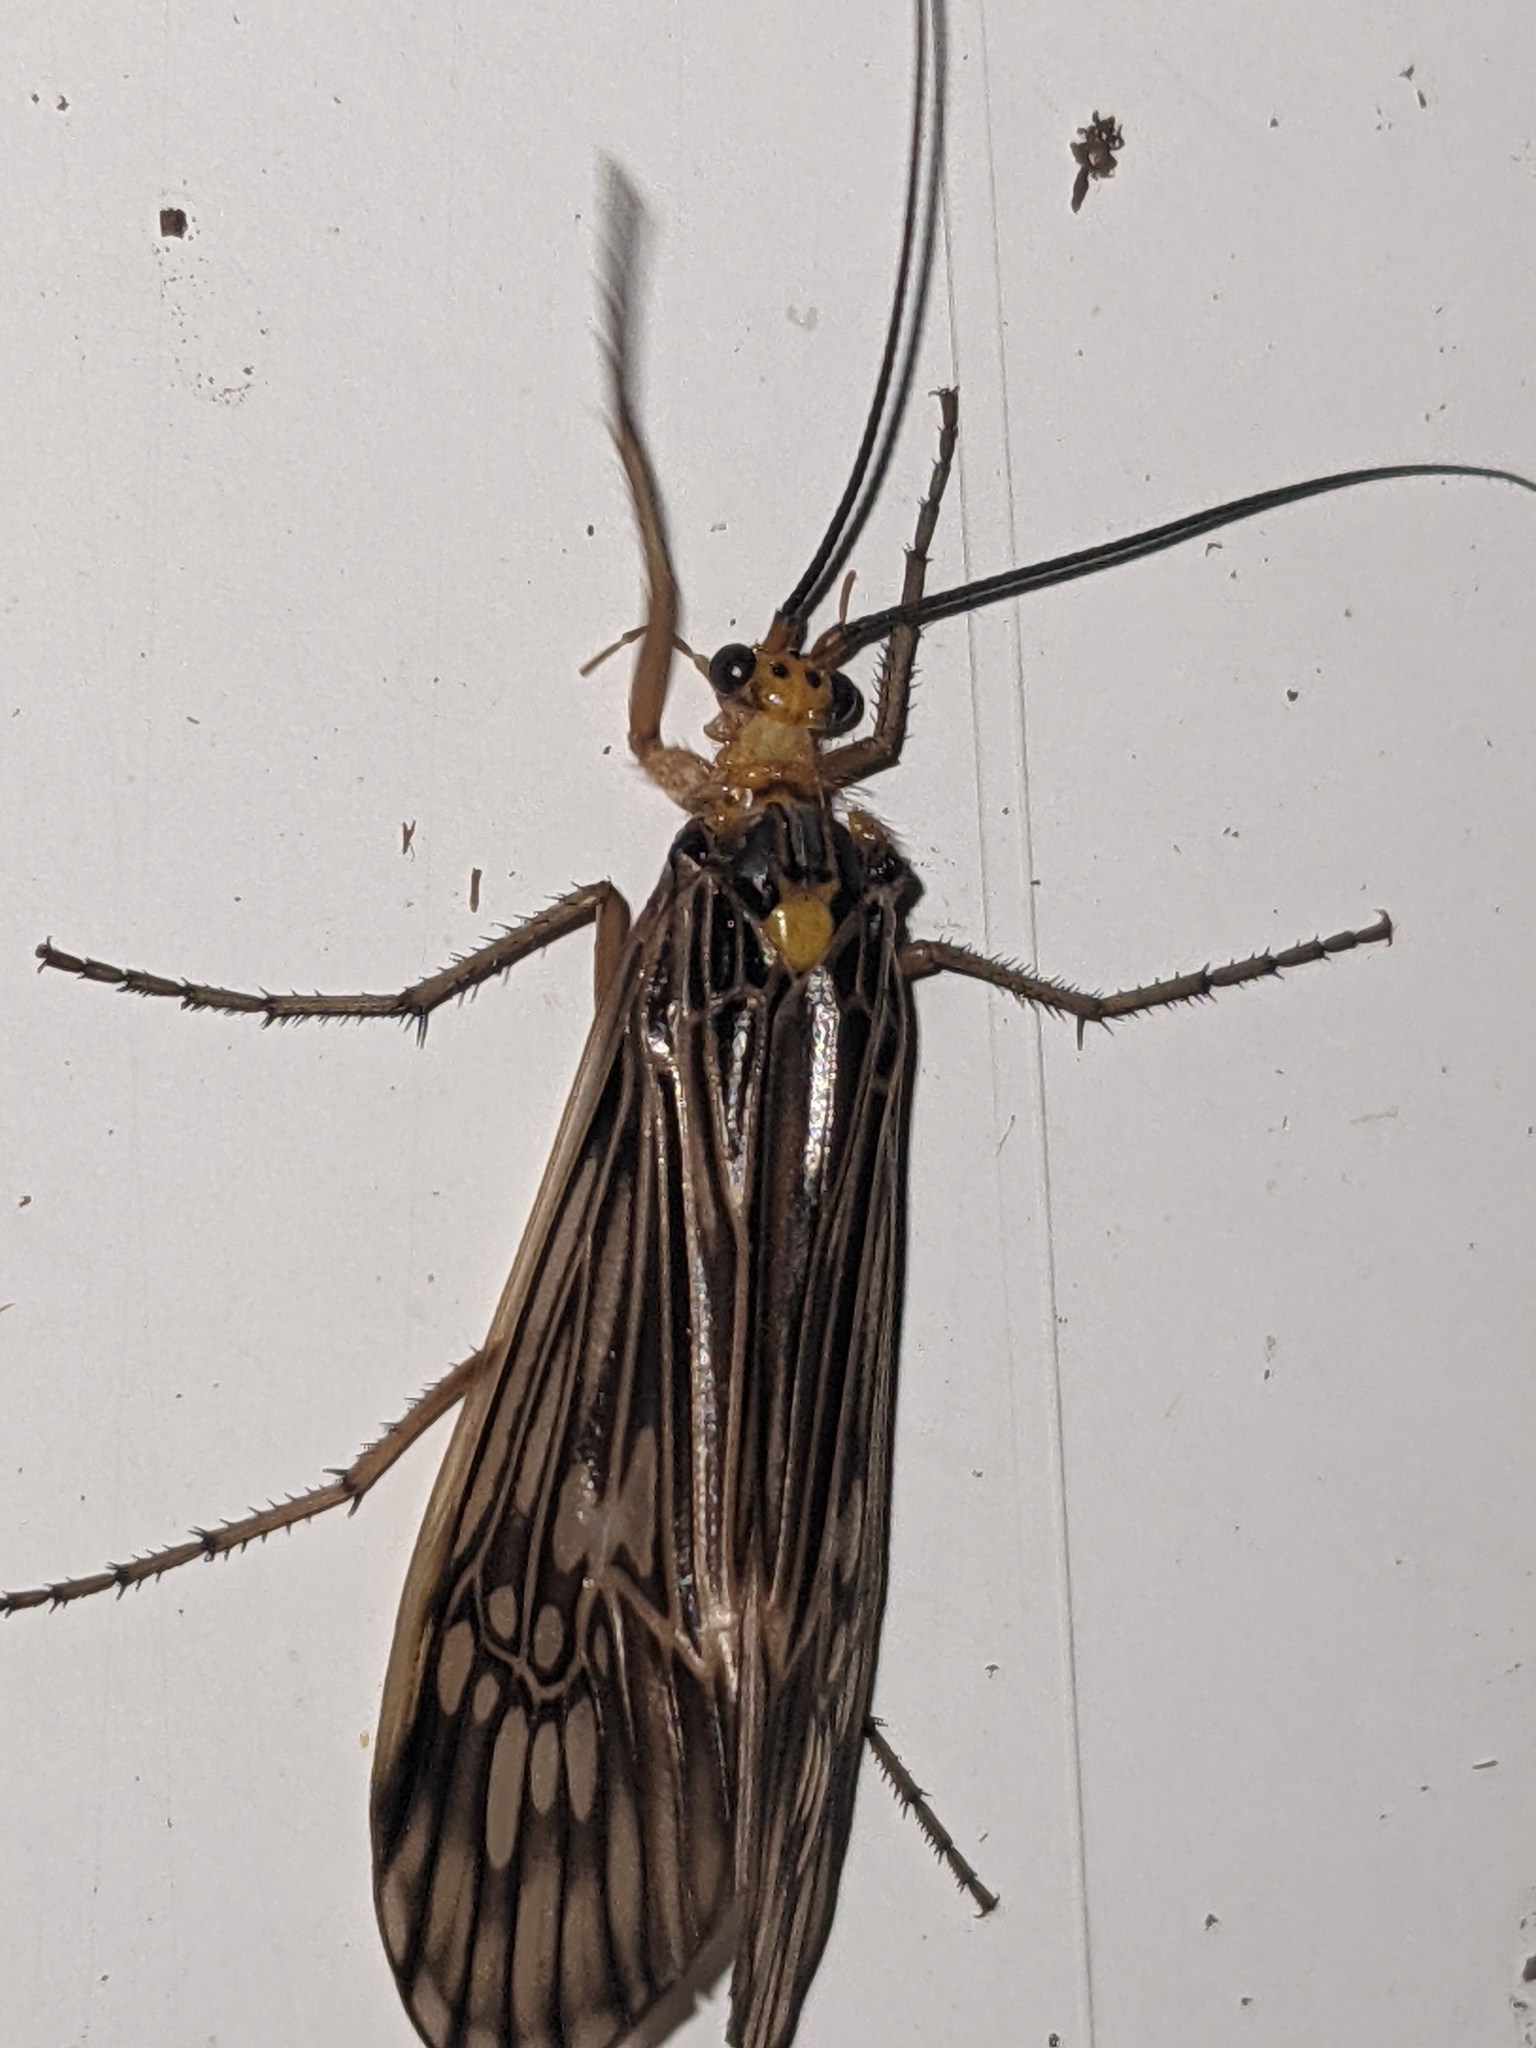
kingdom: Animalia
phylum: Arthropoda
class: Insecta
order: Trichoptera
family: Limnephilidae
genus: Hydatophylax
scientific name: Hydatophylax argus
